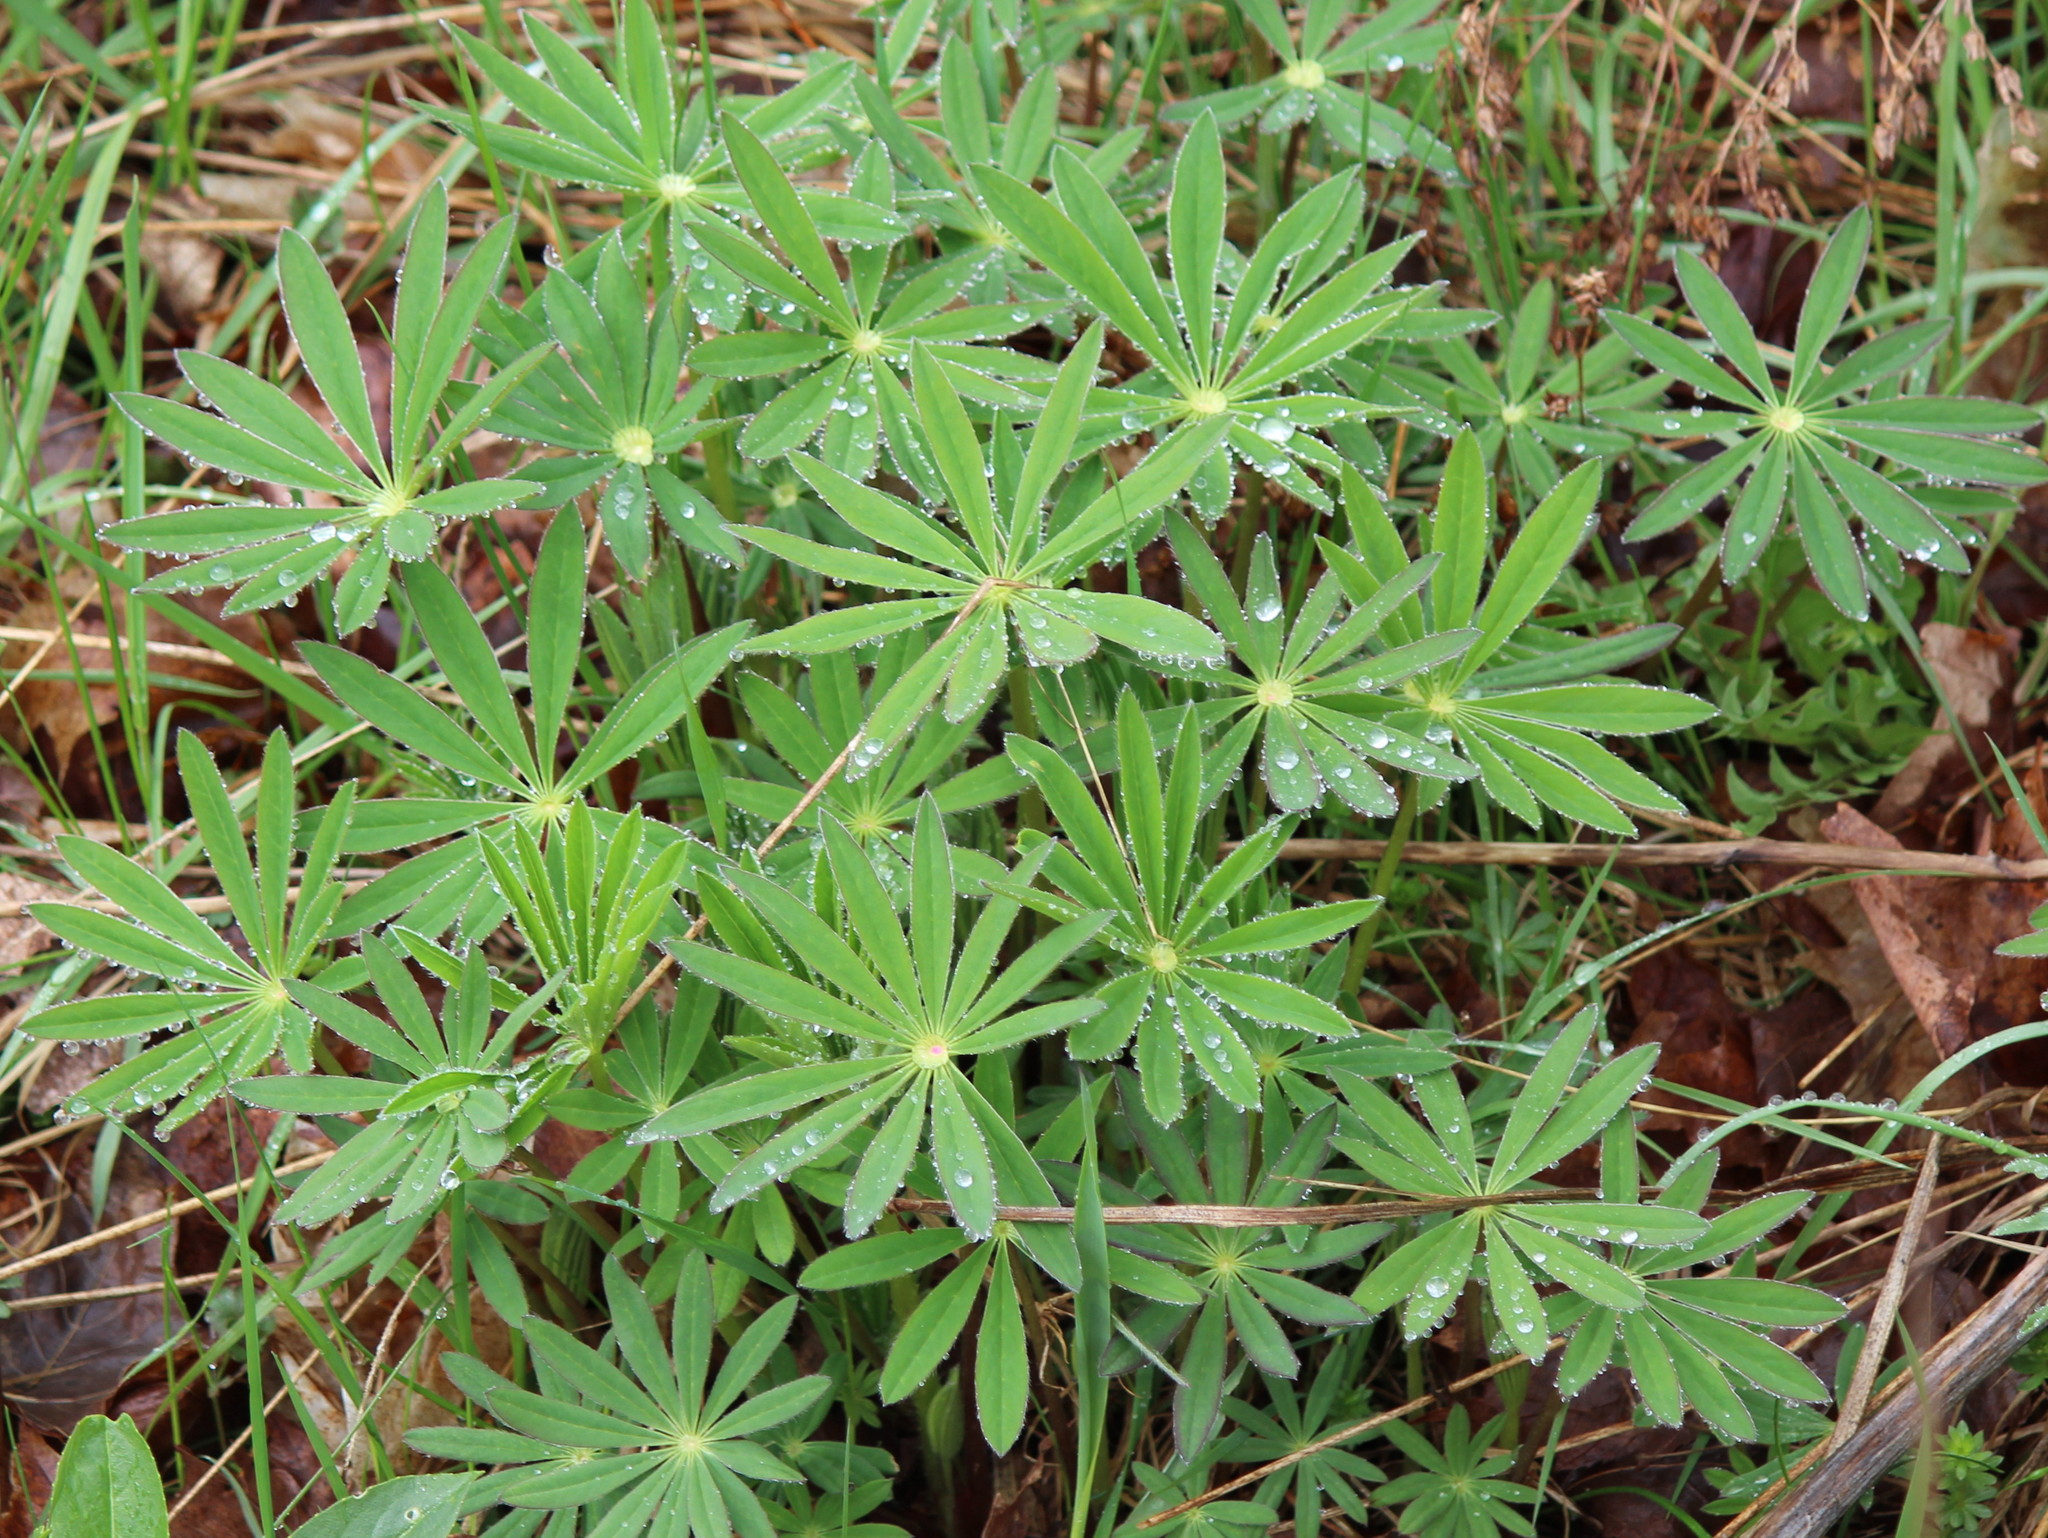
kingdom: Plantae
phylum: Tracheophyta
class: Magnoliopsida
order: Fabales
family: Fabaceae
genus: Lupinus
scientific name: Lupinus polyphyllus
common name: Garden lupin
